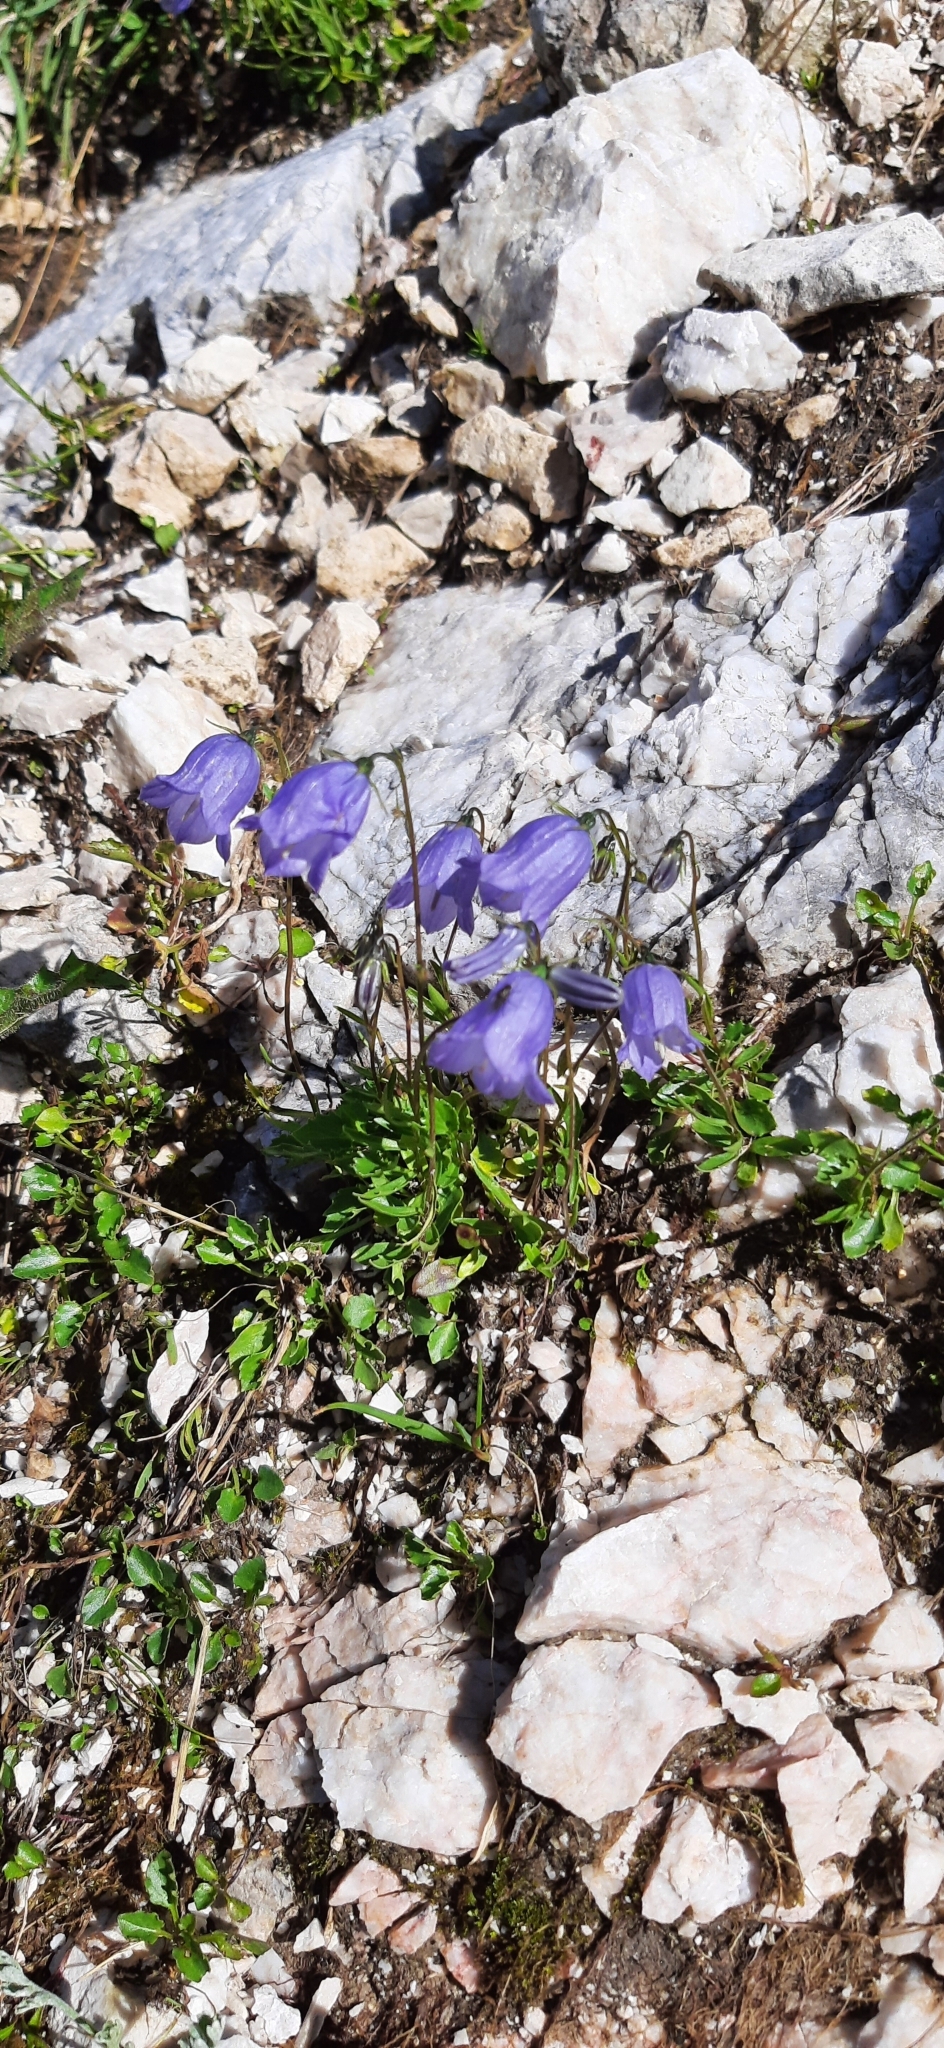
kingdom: Plantae
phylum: Tracheophyta
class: Magnoliopsida
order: Asterales
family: Campanulaceae
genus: Campanula
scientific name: Campanula cochleariifolia
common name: Fairies'-thimbles
